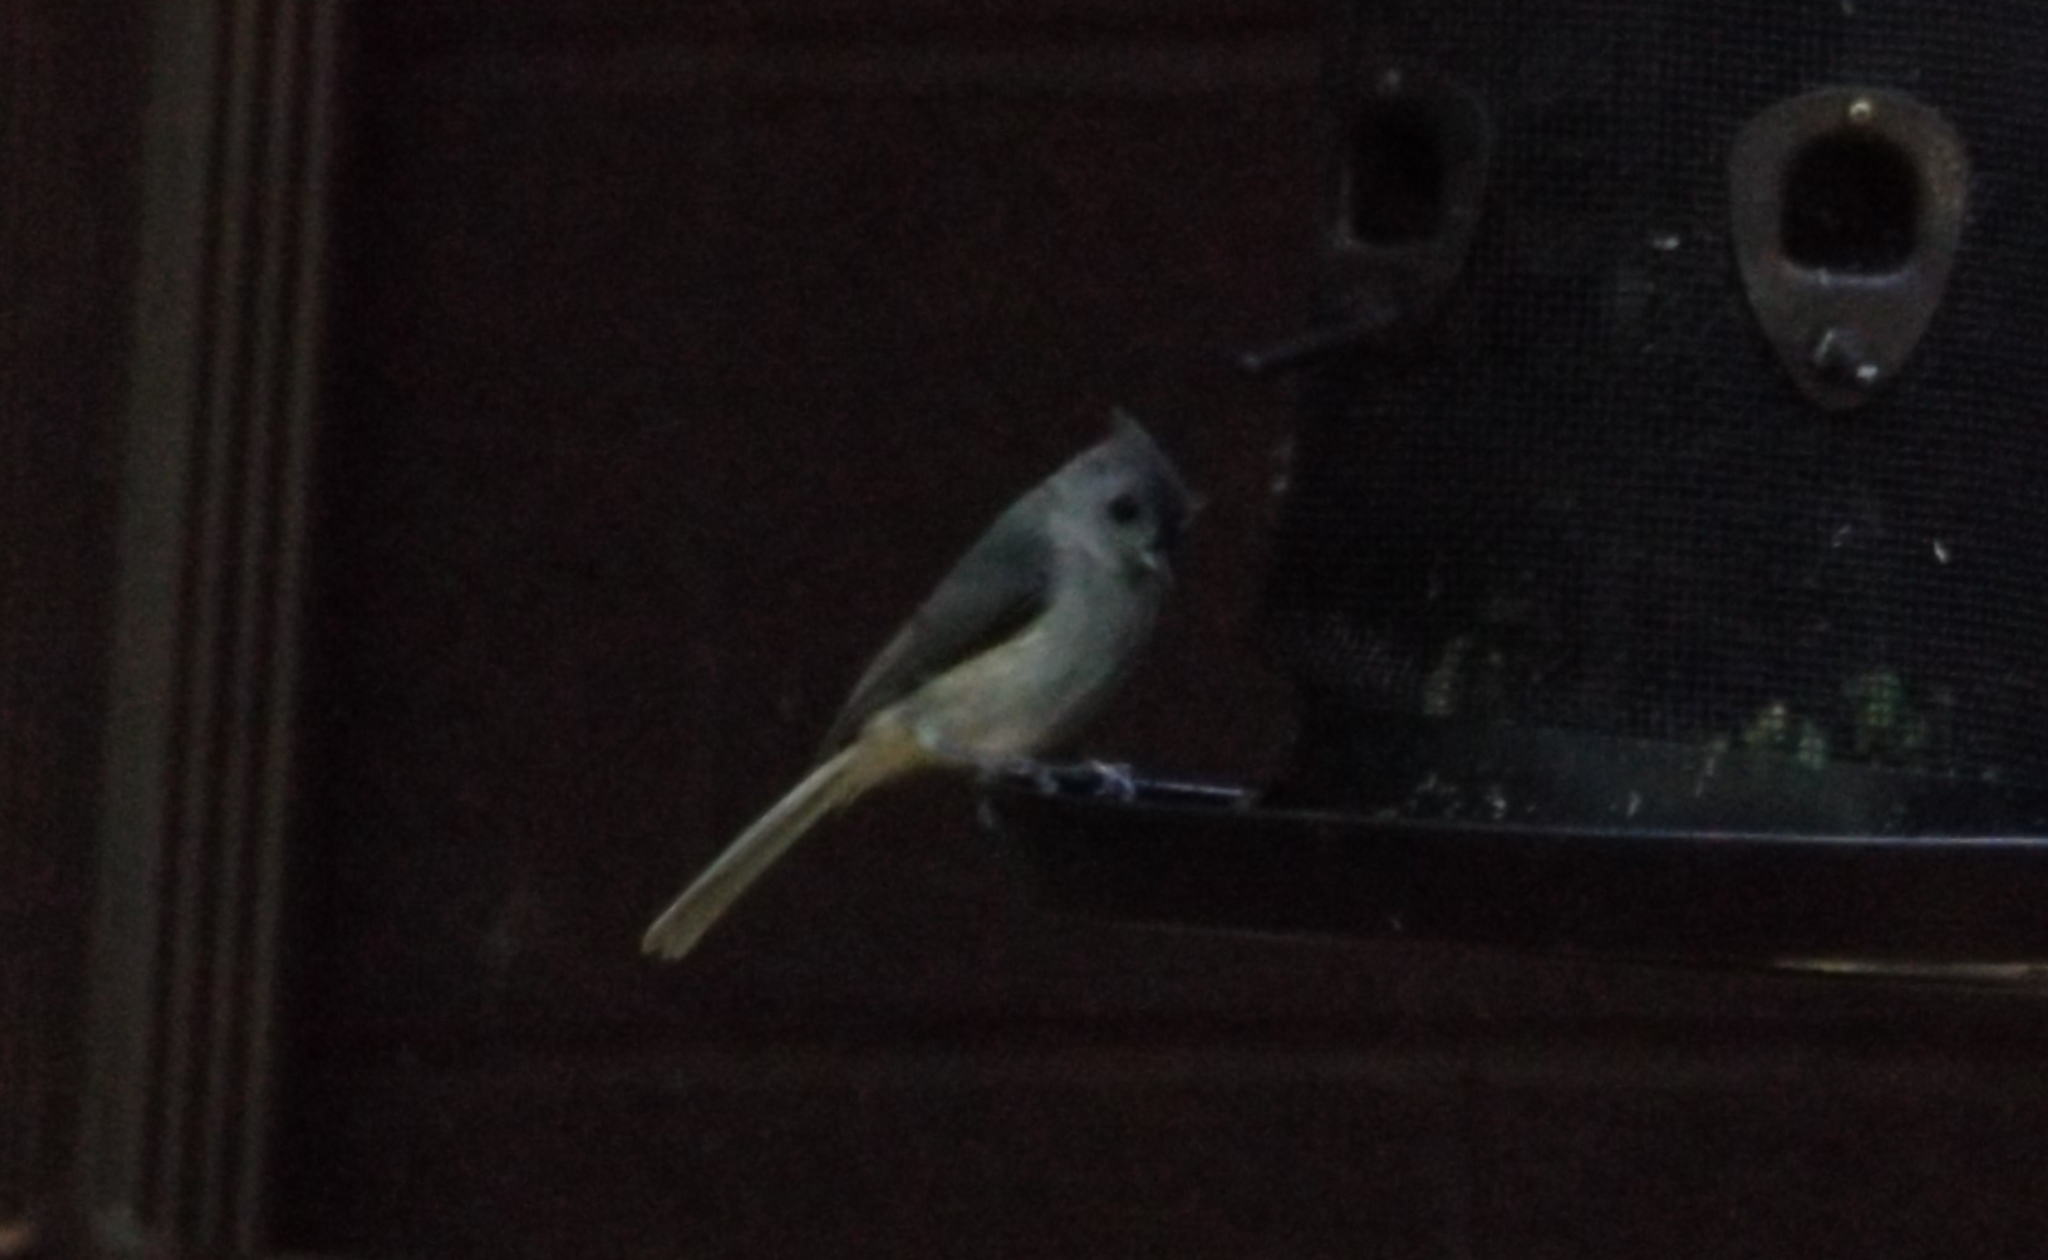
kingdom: Animalia
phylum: Chordata
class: Aves
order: Passeriformes
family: Paridae
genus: Baeolophus
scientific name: Baeolophus bicolor
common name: Tufted titmouse
